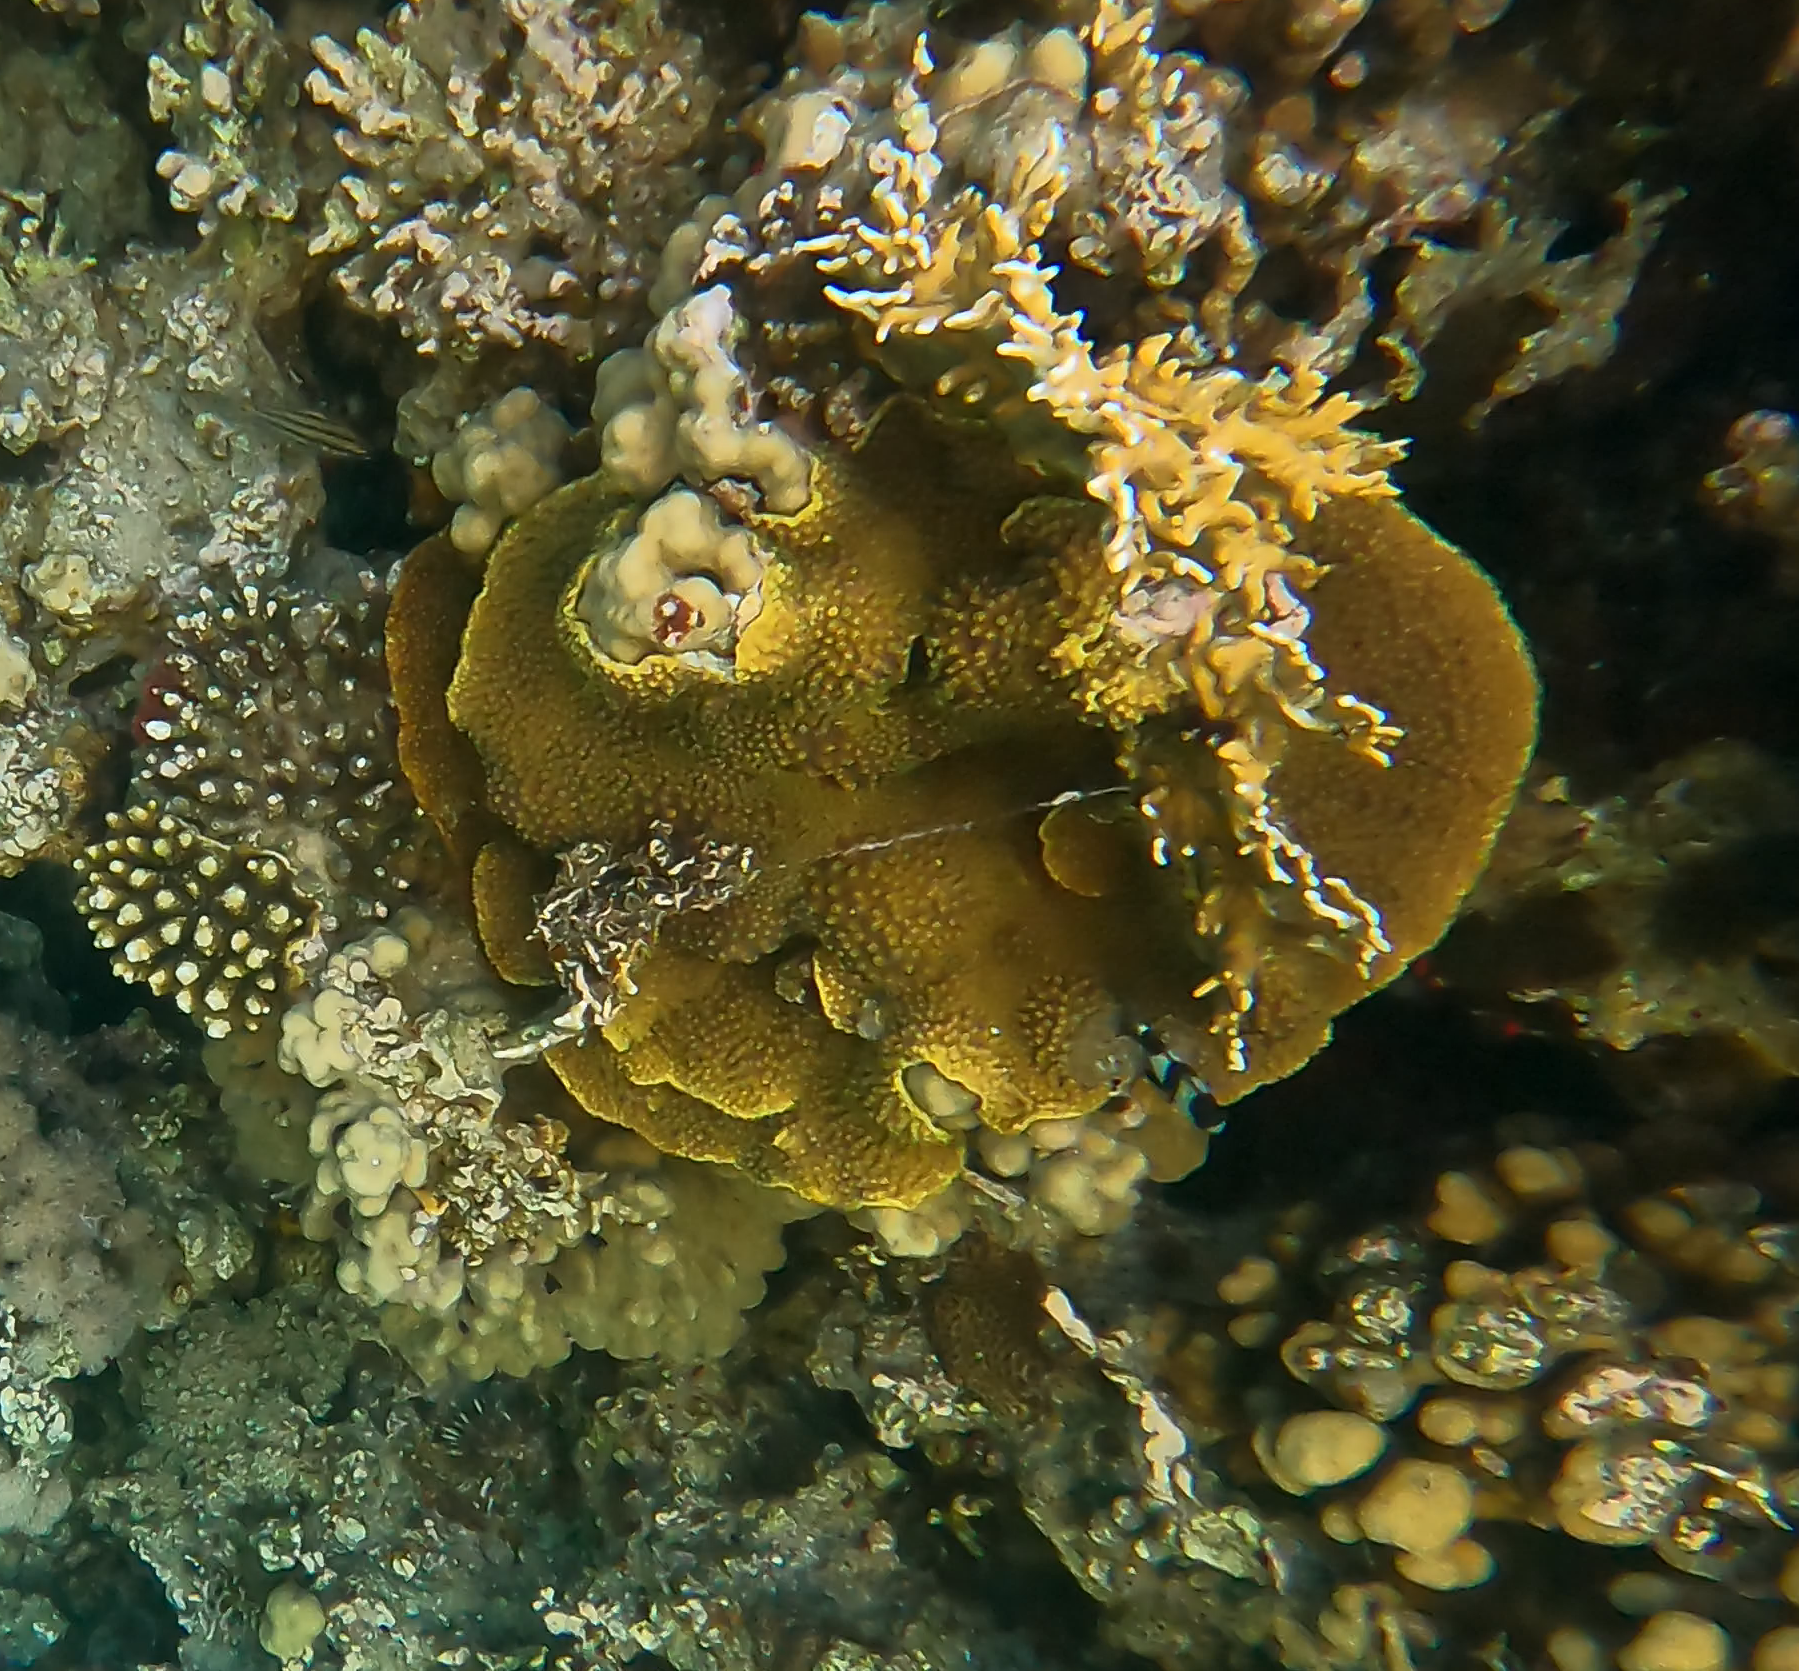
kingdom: Animalia
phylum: Cnidaria
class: Anthozoa
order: Scleractinia
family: Dendrophylliidae
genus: Turbinaria
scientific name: Turbinaria reniformis
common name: Disc coral
